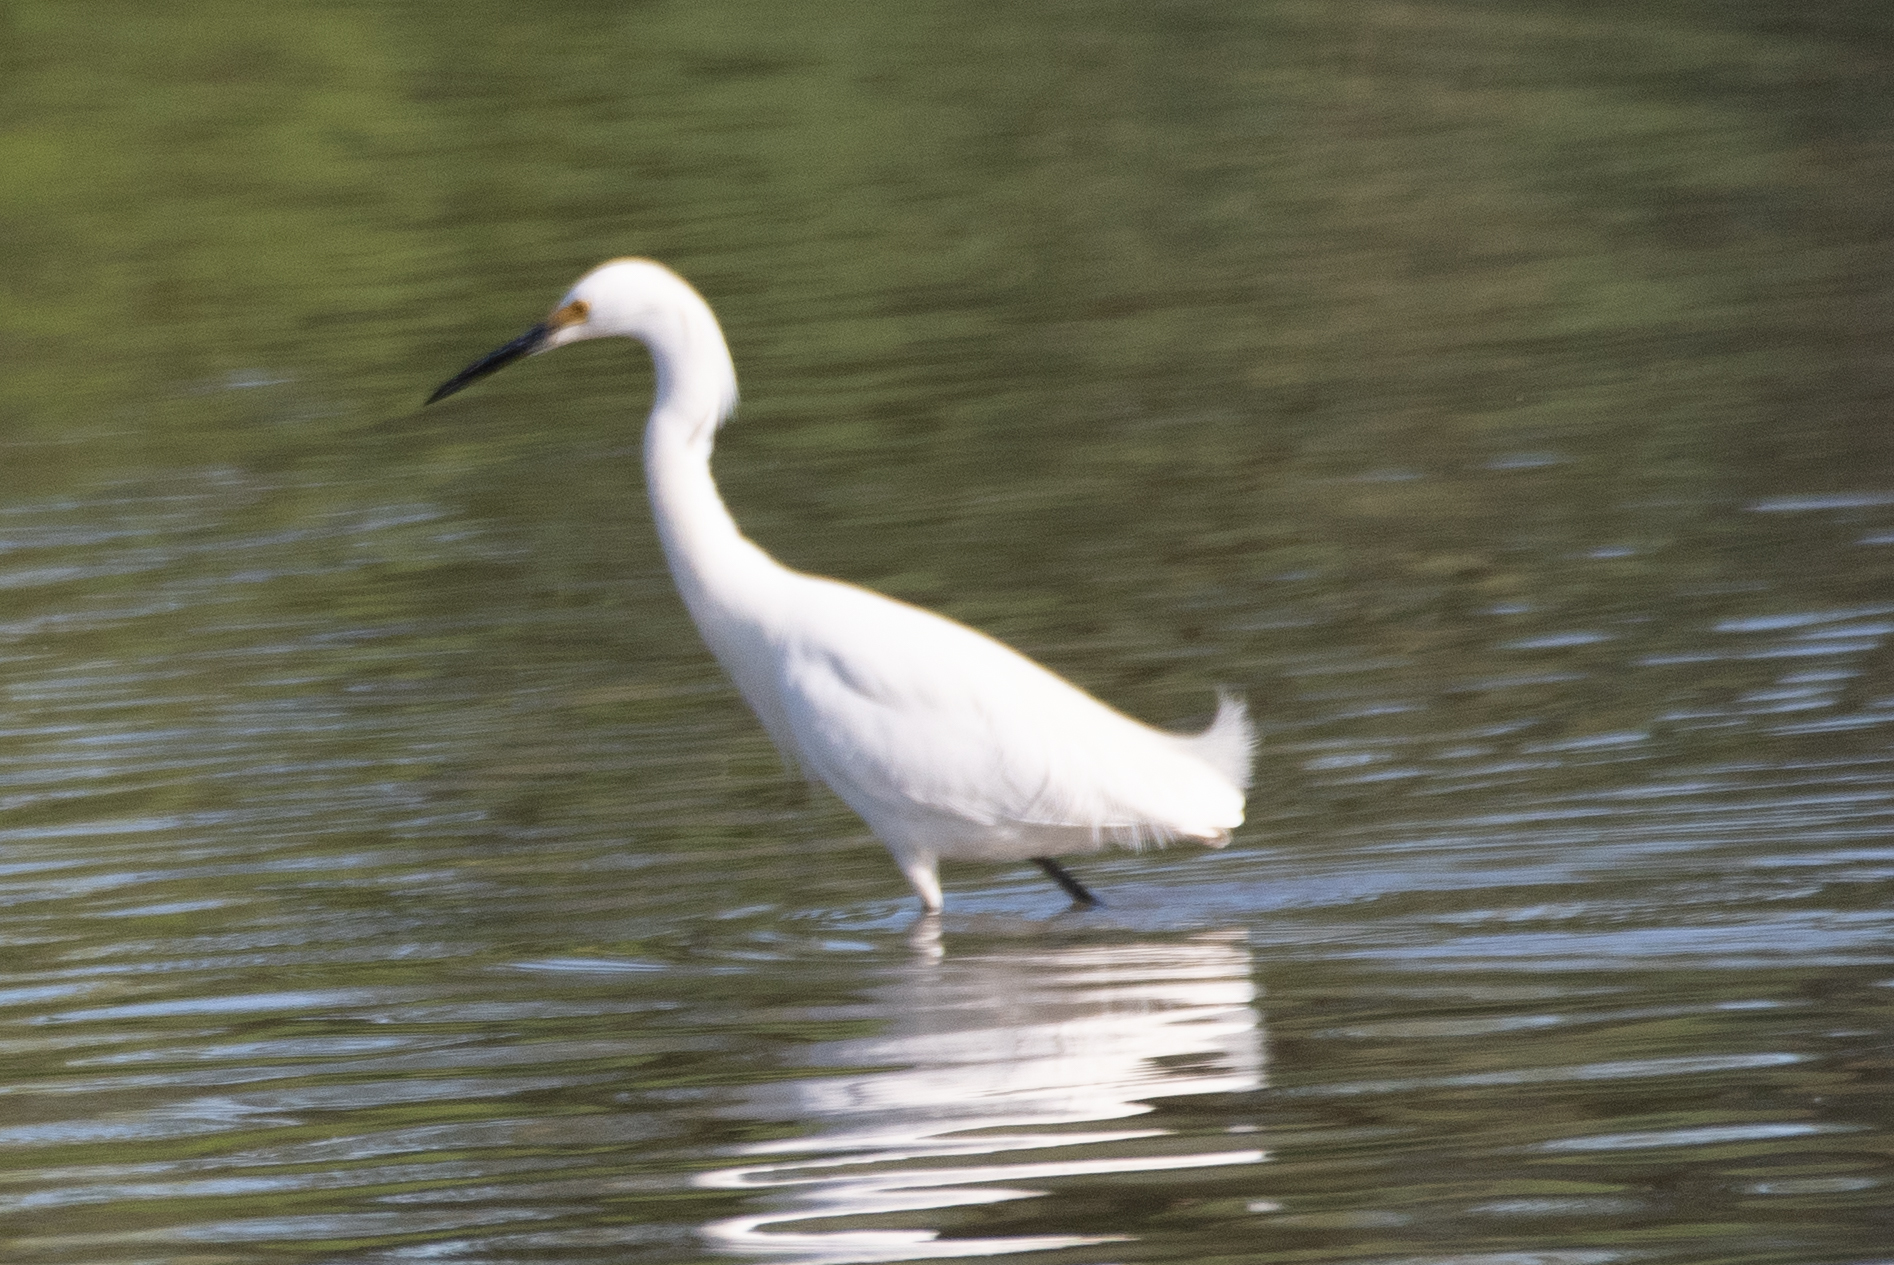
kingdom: Animalia
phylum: Chordata
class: Aves
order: Pelecaniformes
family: Ardeidae
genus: Egretta
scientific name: Egretta thula
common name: Snowy egret
